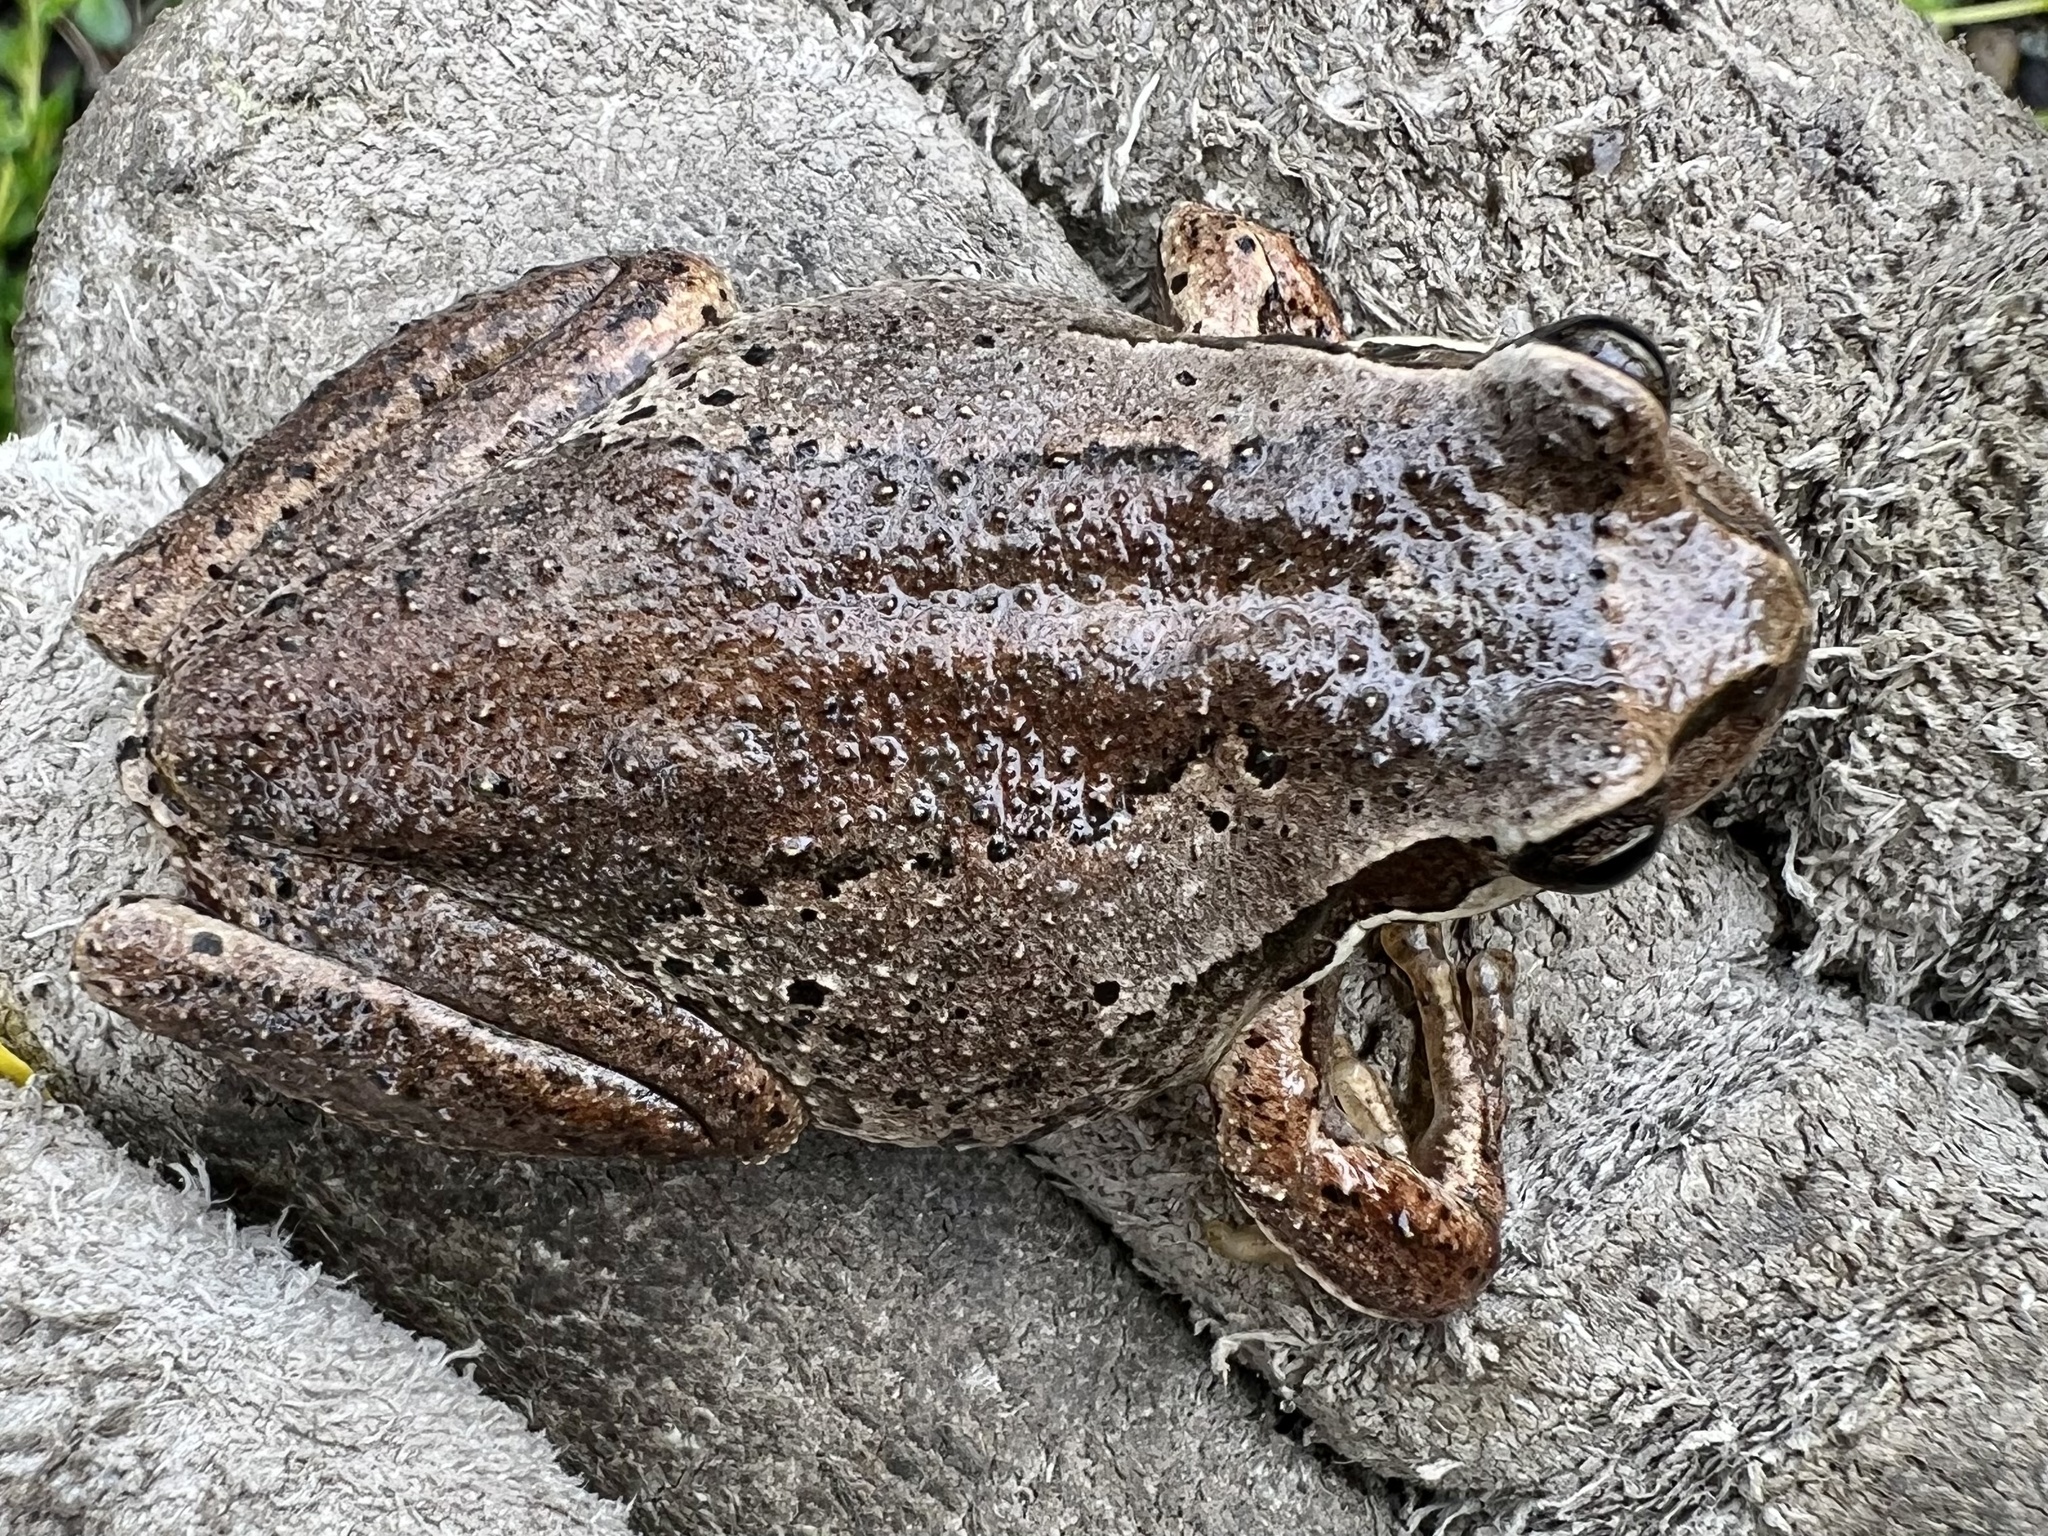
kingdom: Animalia
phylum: Chordata
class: Amphibia
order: Anura
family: Pelodryadidae
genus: Litoria
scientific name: Litoria ewingii
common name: Southern brown tree frog
